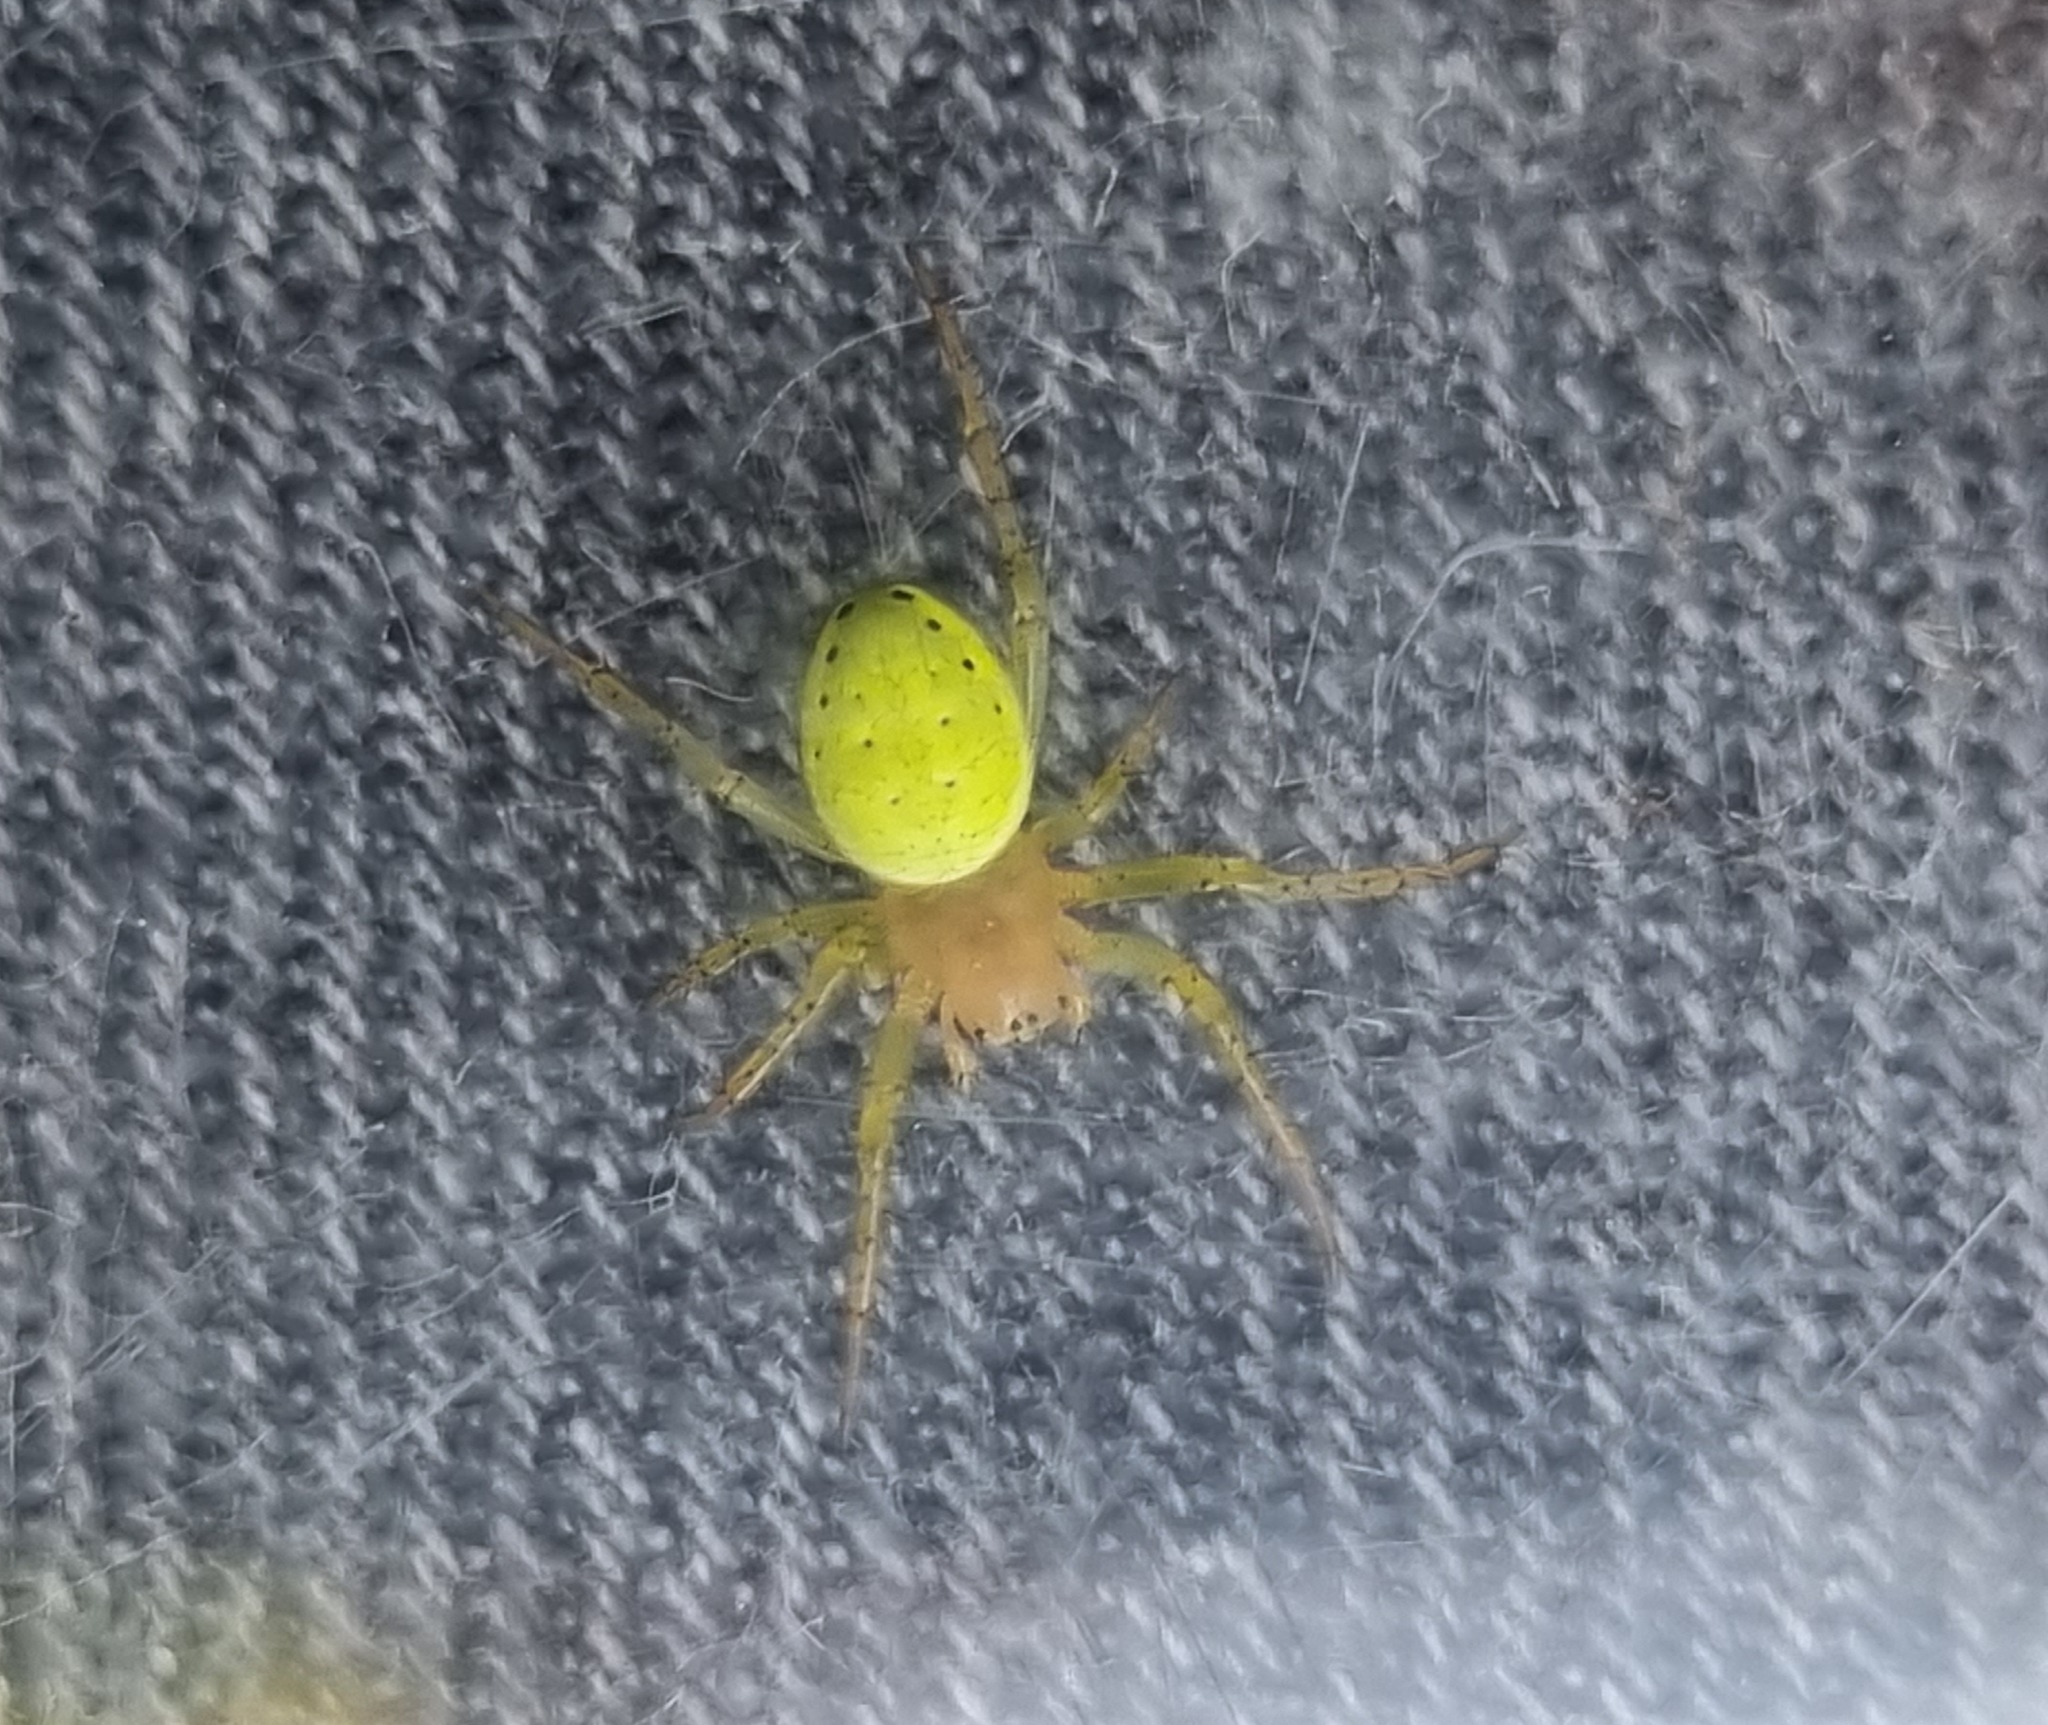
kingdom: Animalia
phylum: Arthropoda
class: Arachnida
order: Araneae
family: Araneidae
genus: Araniella
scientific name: Araniella
